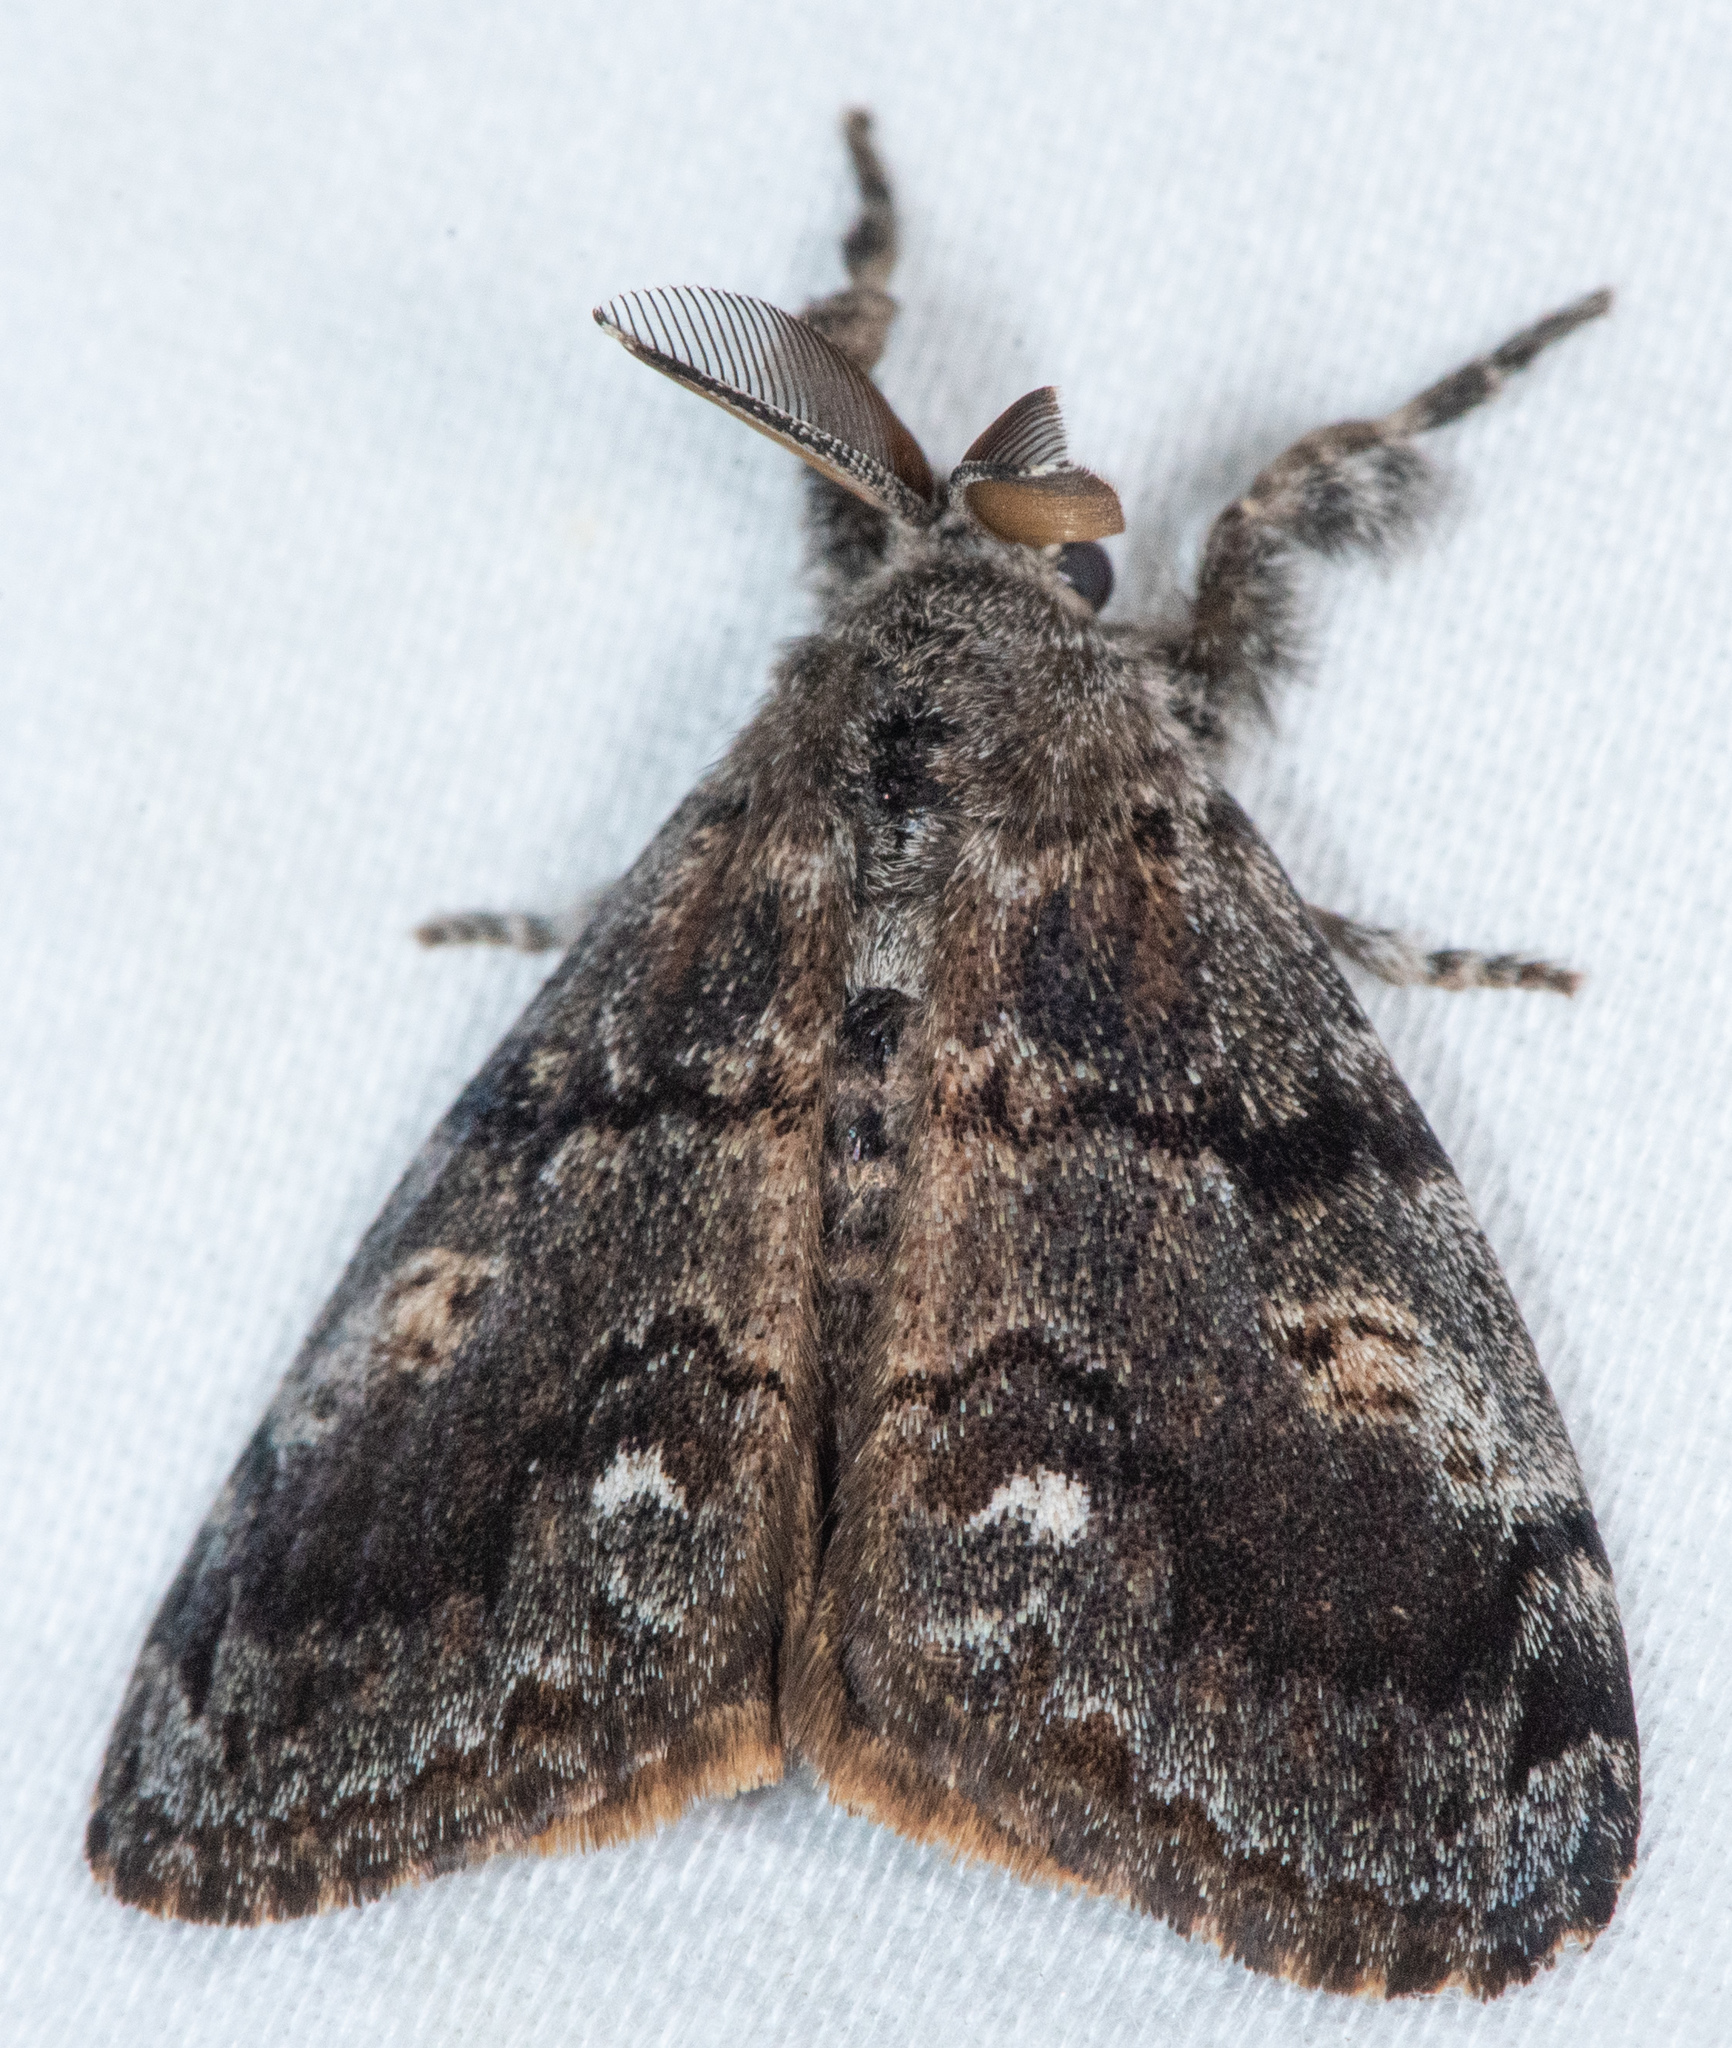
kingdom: Animalia
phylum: Arthropoda
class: Insecta
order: Lepidoptera
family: Erebidae
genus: Orgyia
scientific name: Orgyia vetusta
